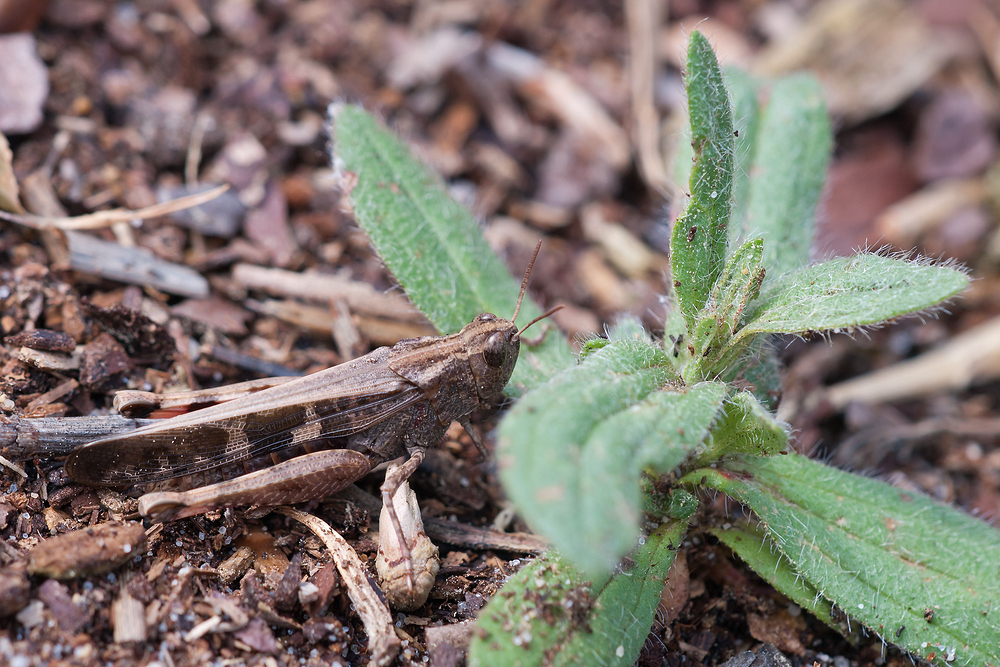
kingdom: Animalia
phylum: Arthropoda
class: Insecta
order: Orthoptera
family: Acrididae
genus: Aiolopus
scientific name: Aiolopus strepens
